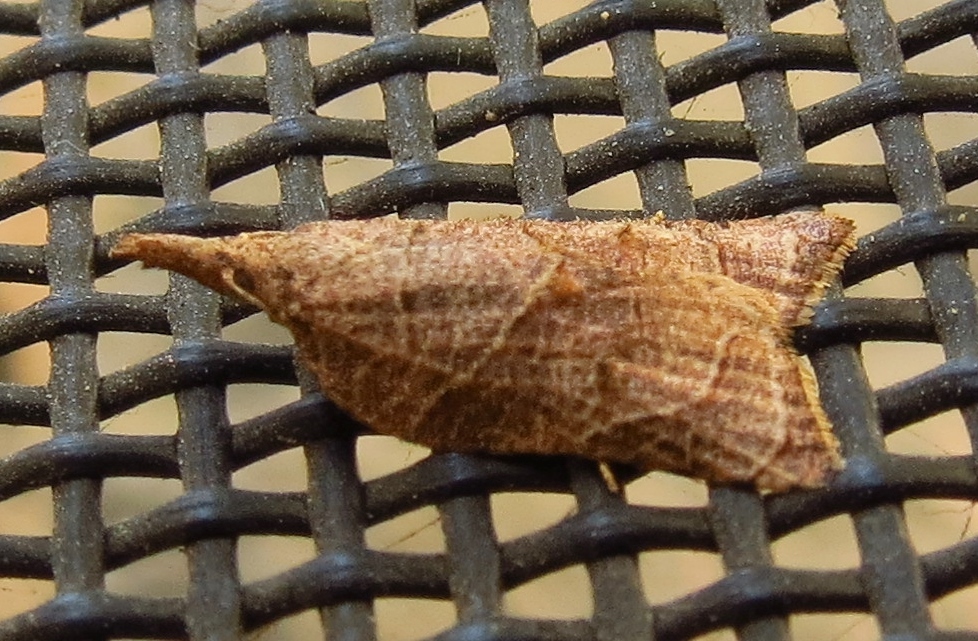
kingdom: Animalia
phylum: Arthropoda
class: Insecta
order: Lepidoptera
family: Tortricidae
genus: Platynota
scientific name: Platynota rostrana
